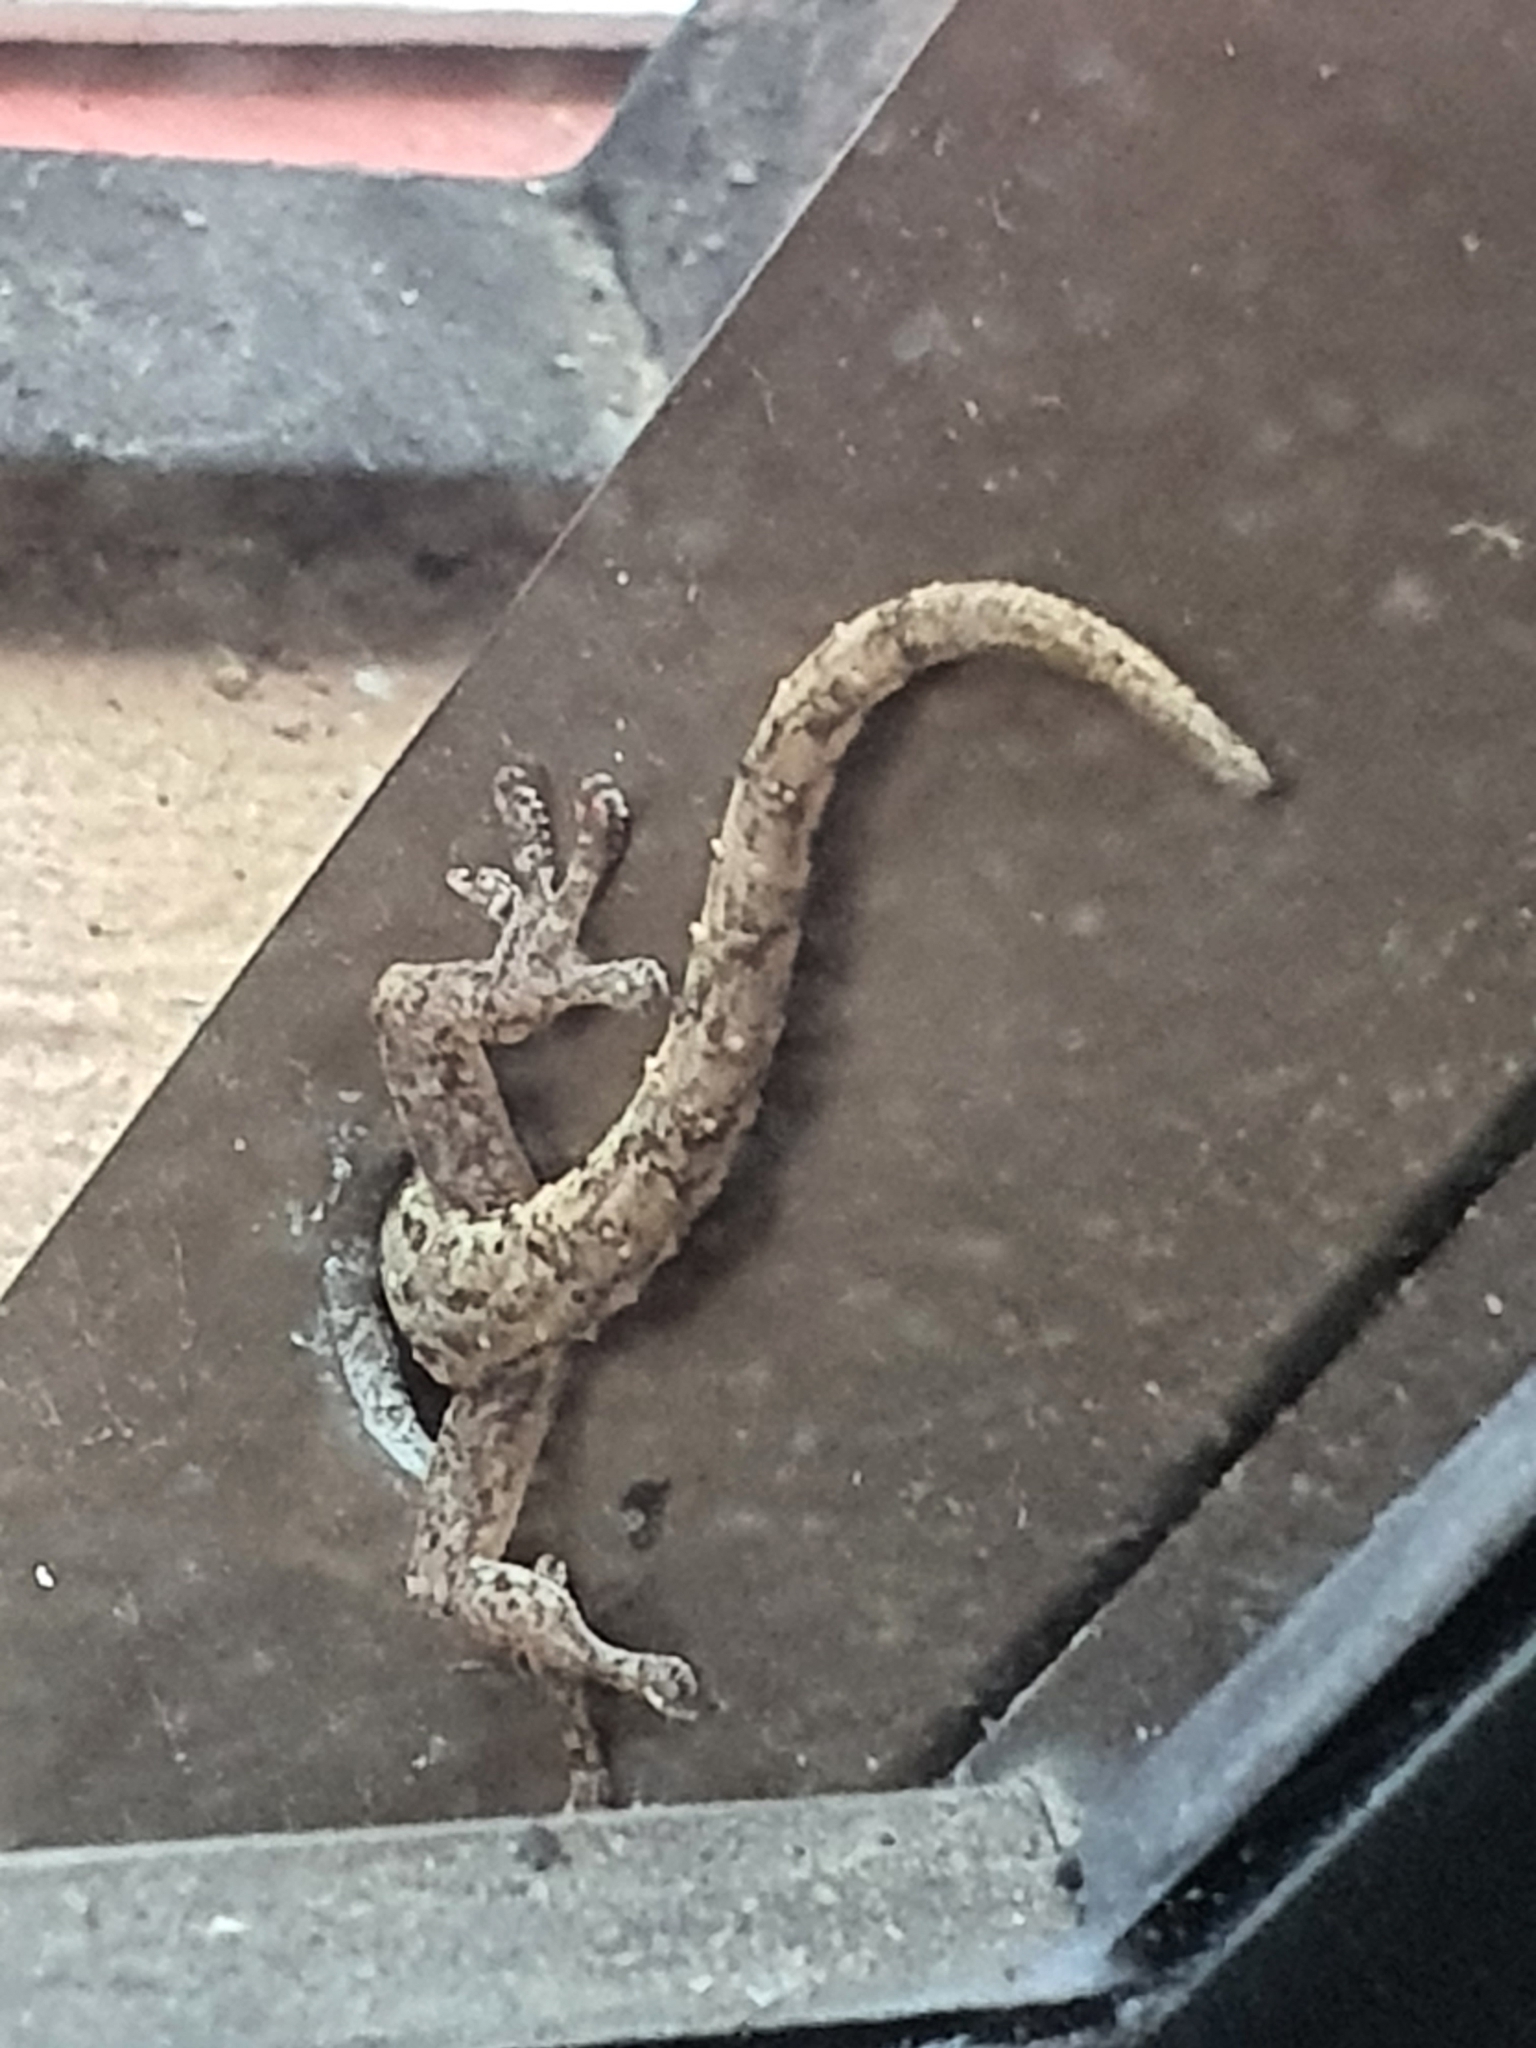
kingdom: Animalia
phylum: Chordata
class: Squamata
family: Gekkonidae
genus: Hemidactylus
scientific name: Hemidactylus frenatus
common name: Common house gecko
